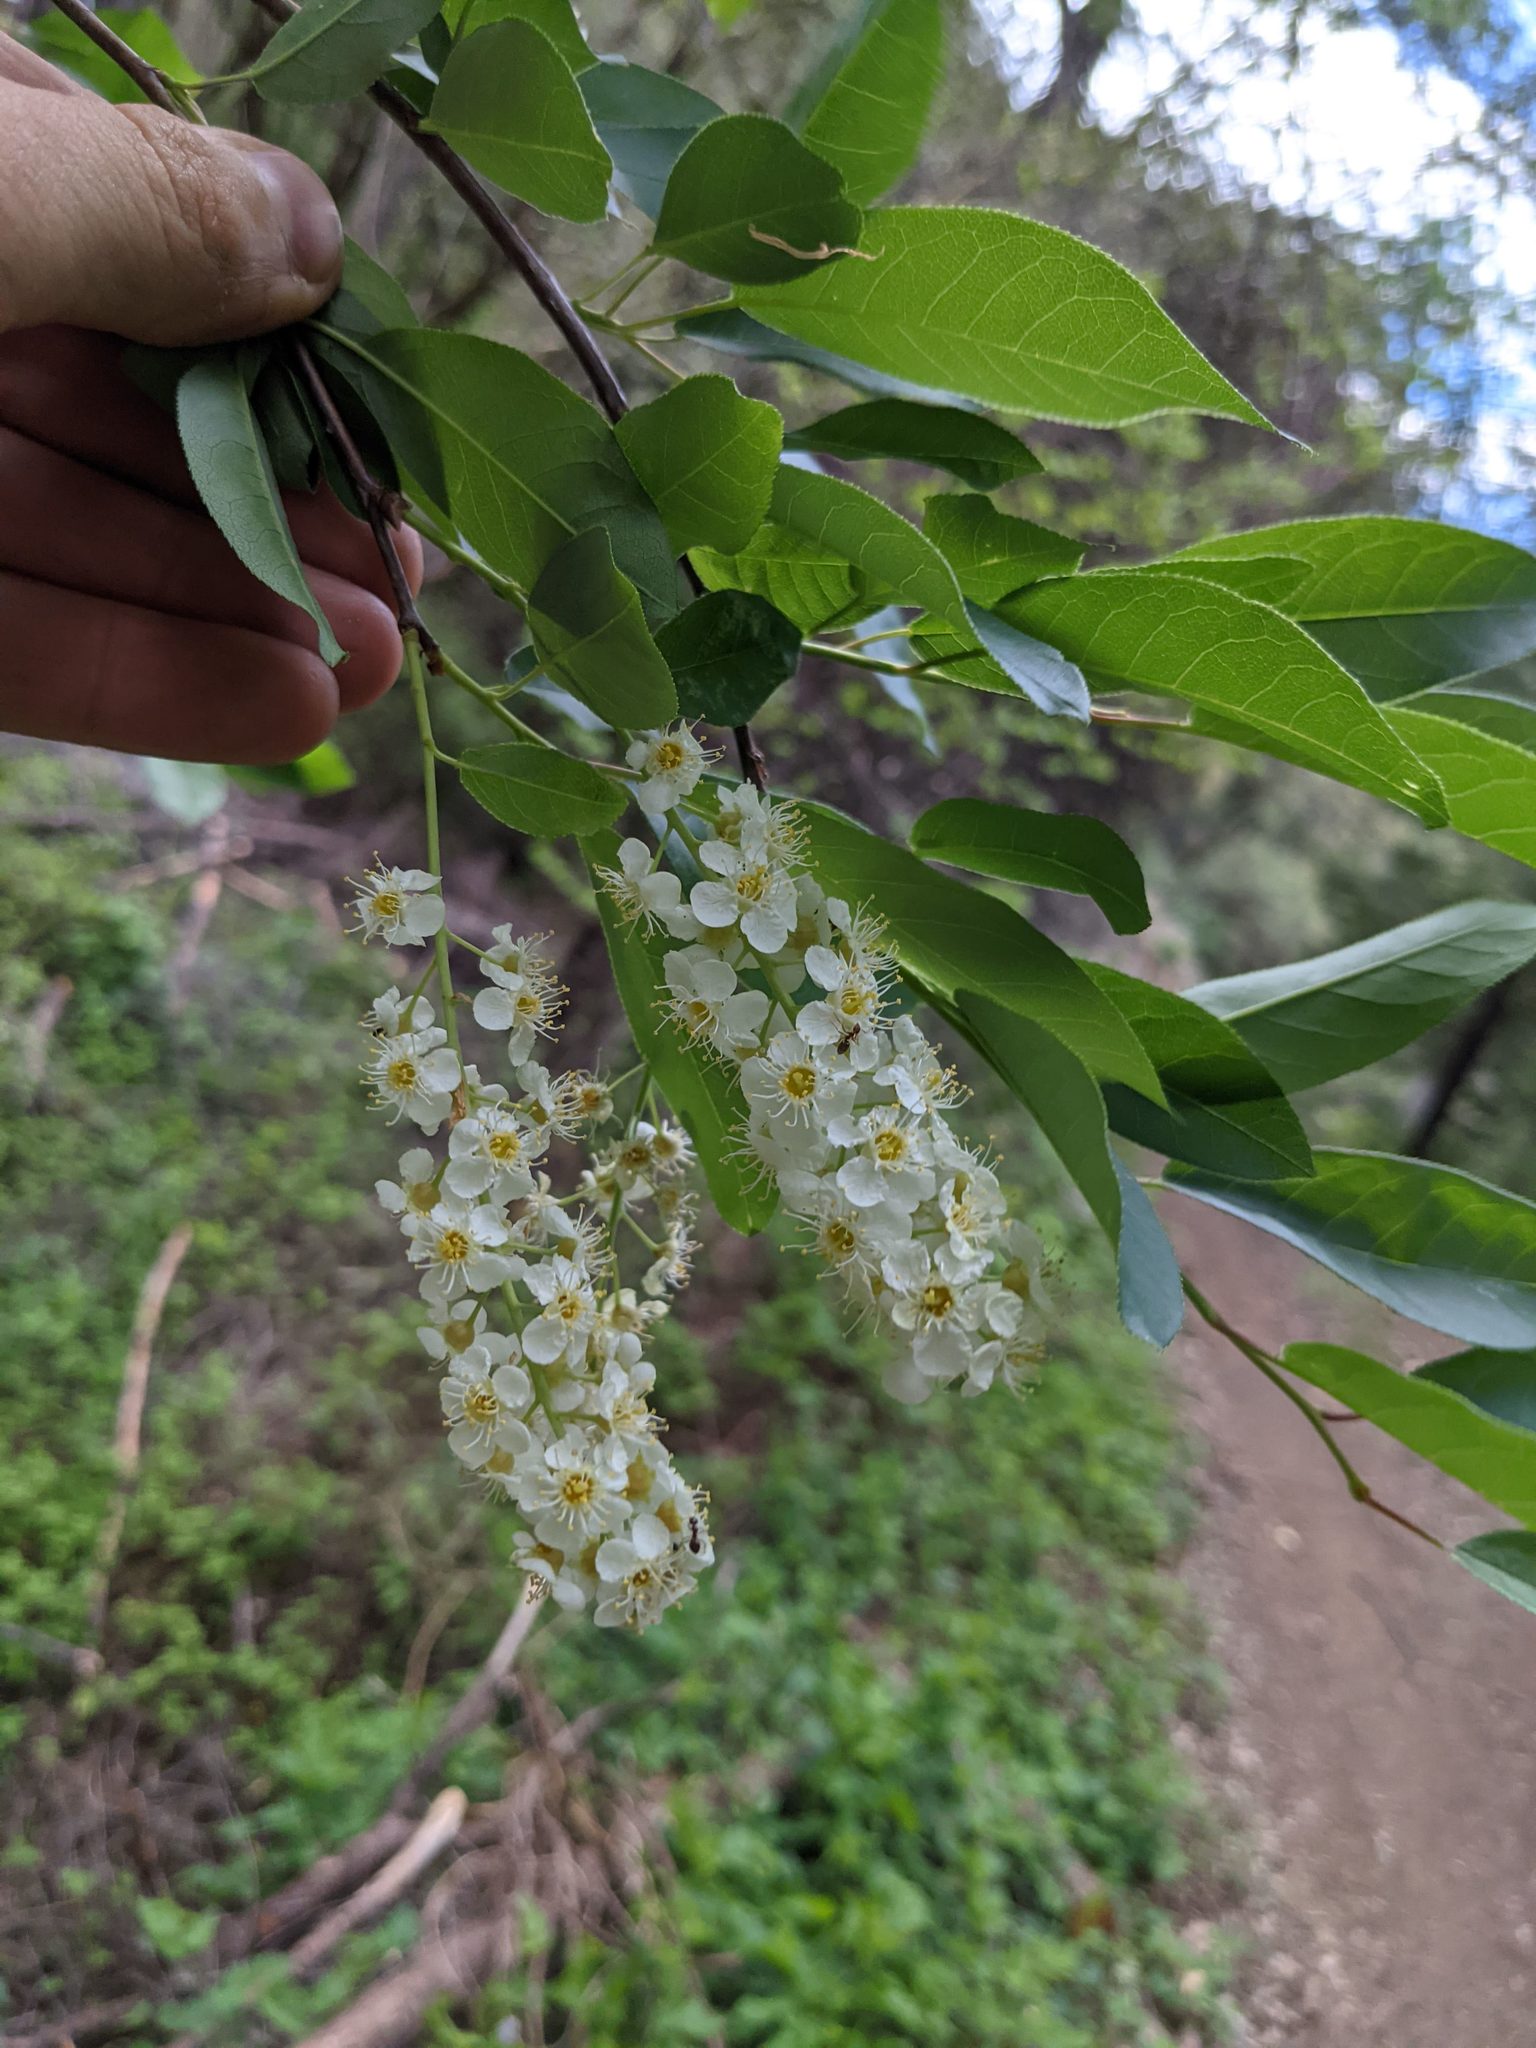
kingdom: Plantae
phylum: Tracheophyta
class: Magnoliopsida
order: Rosales
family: Rosaceae
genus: Prunus
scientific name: Prunus virginiana
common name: Chokecherry
